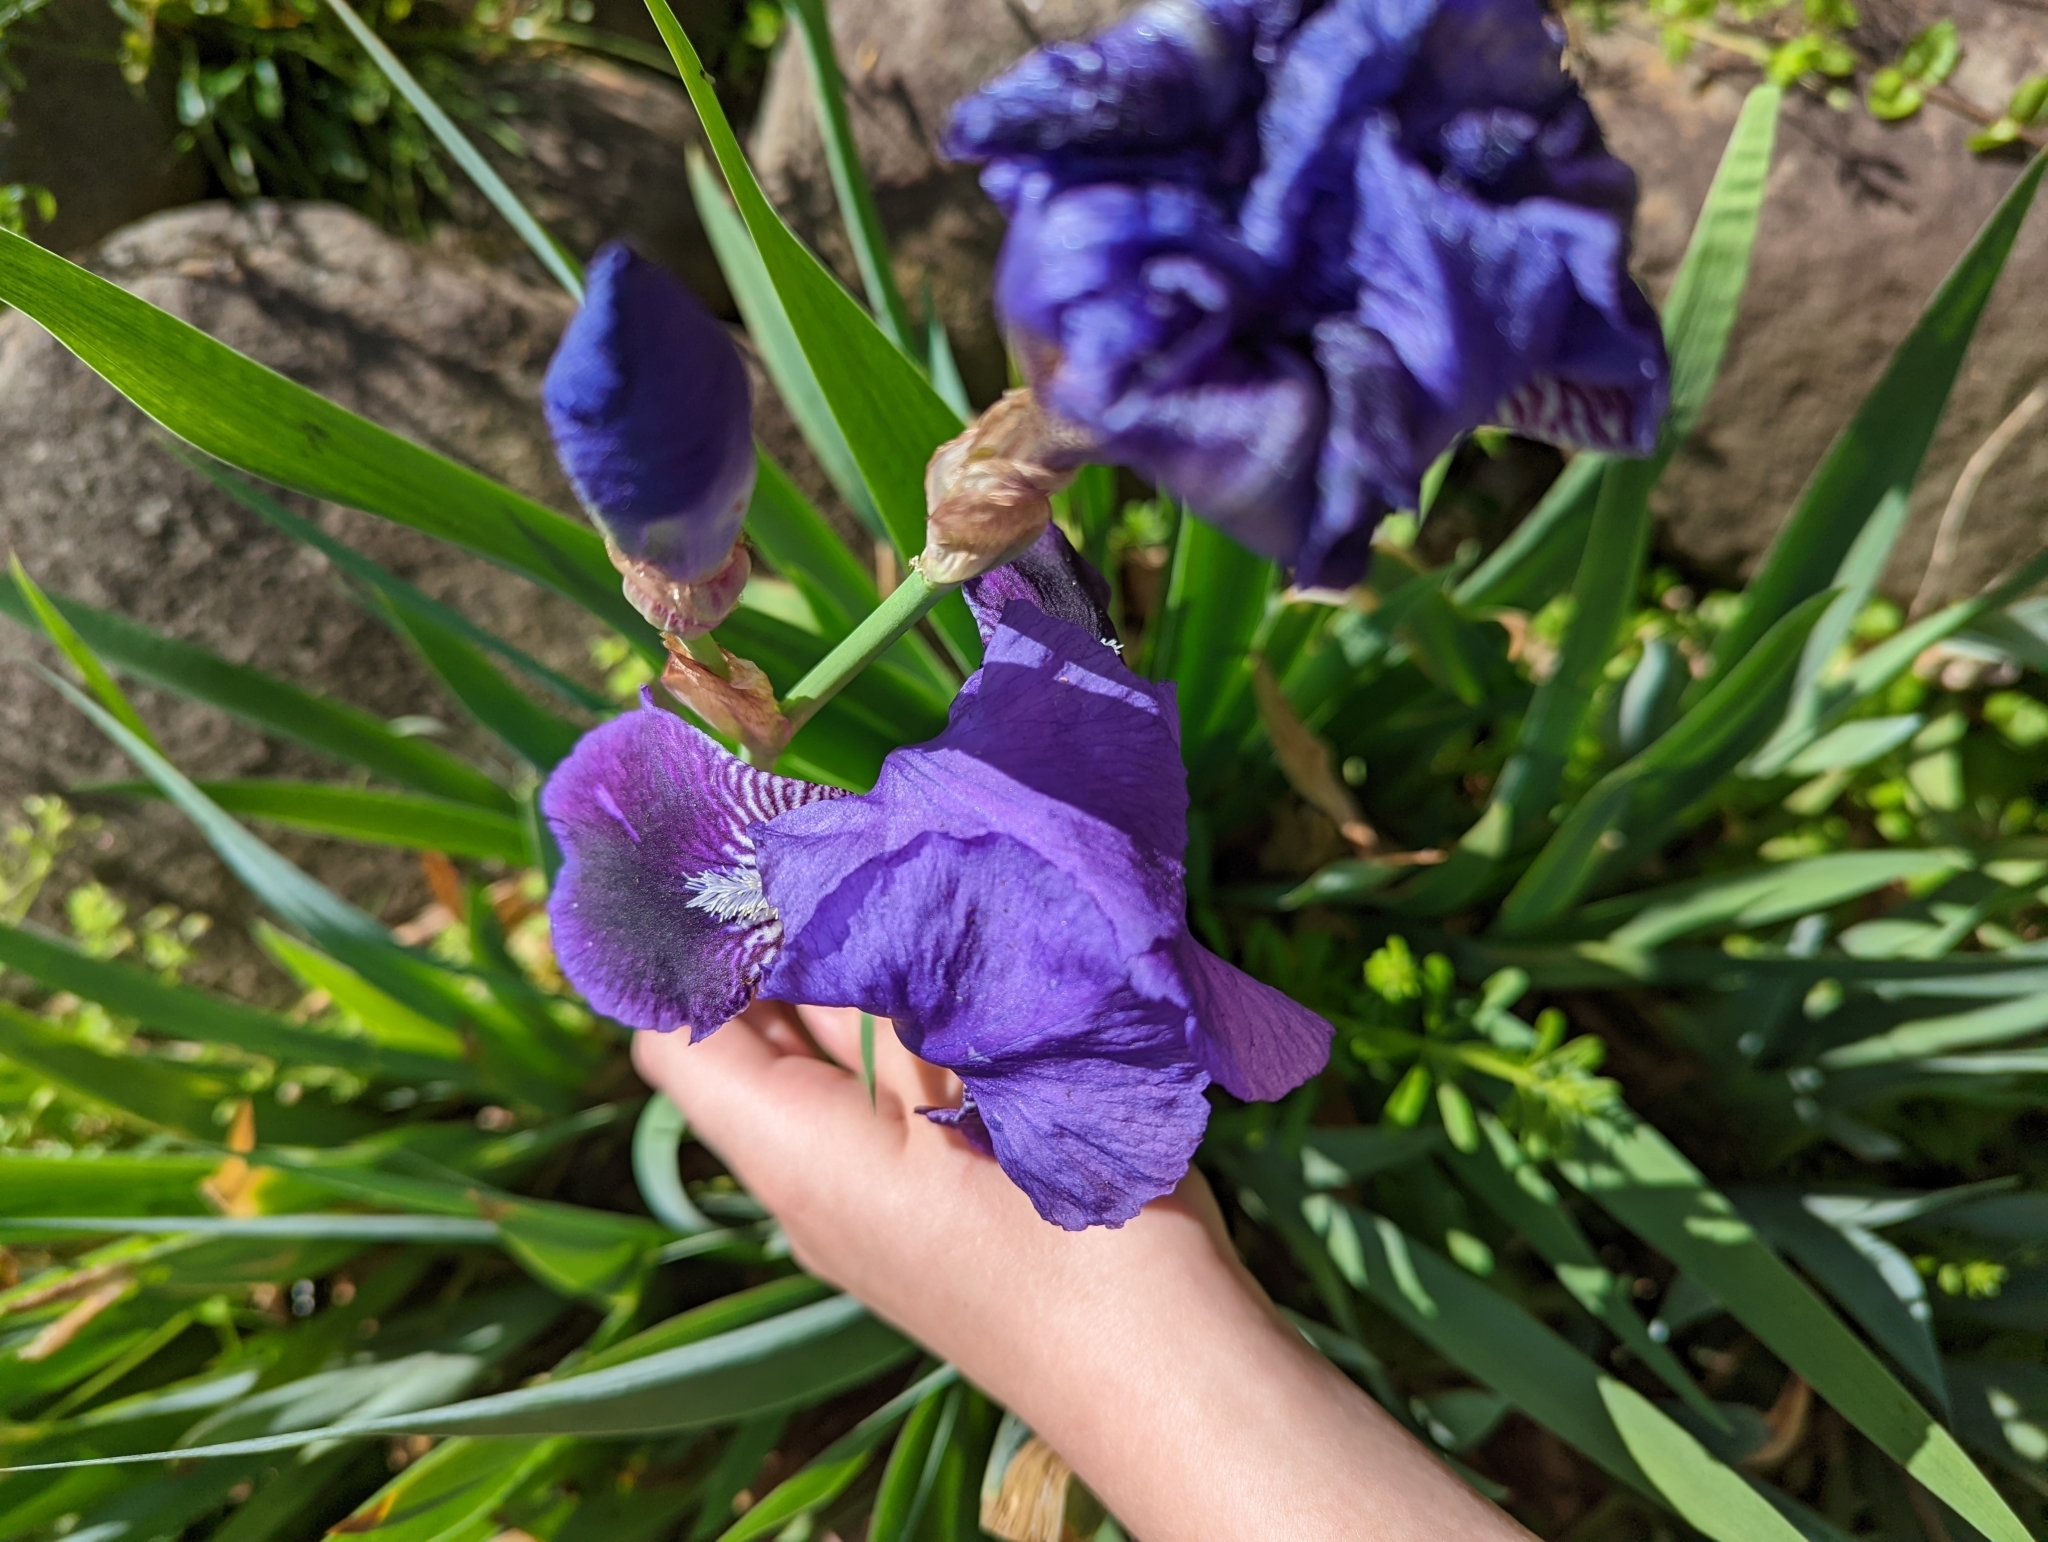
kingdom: Plantae
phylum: Tracheophyta
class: Liliopsida
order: Asparagales
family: Iridaceae
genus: Iris
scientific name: Iris germanica
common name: German iris
